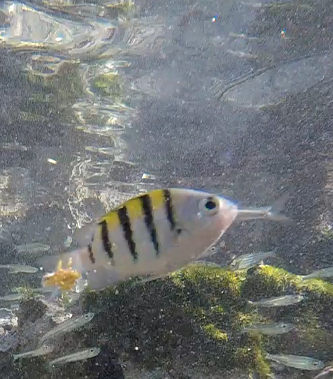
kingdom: Animalia
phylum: Chordata
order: Perciformes
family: Pomacentridae
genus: Abudefduf
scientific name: Abudefduf saxatilis
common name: Sergeant major
